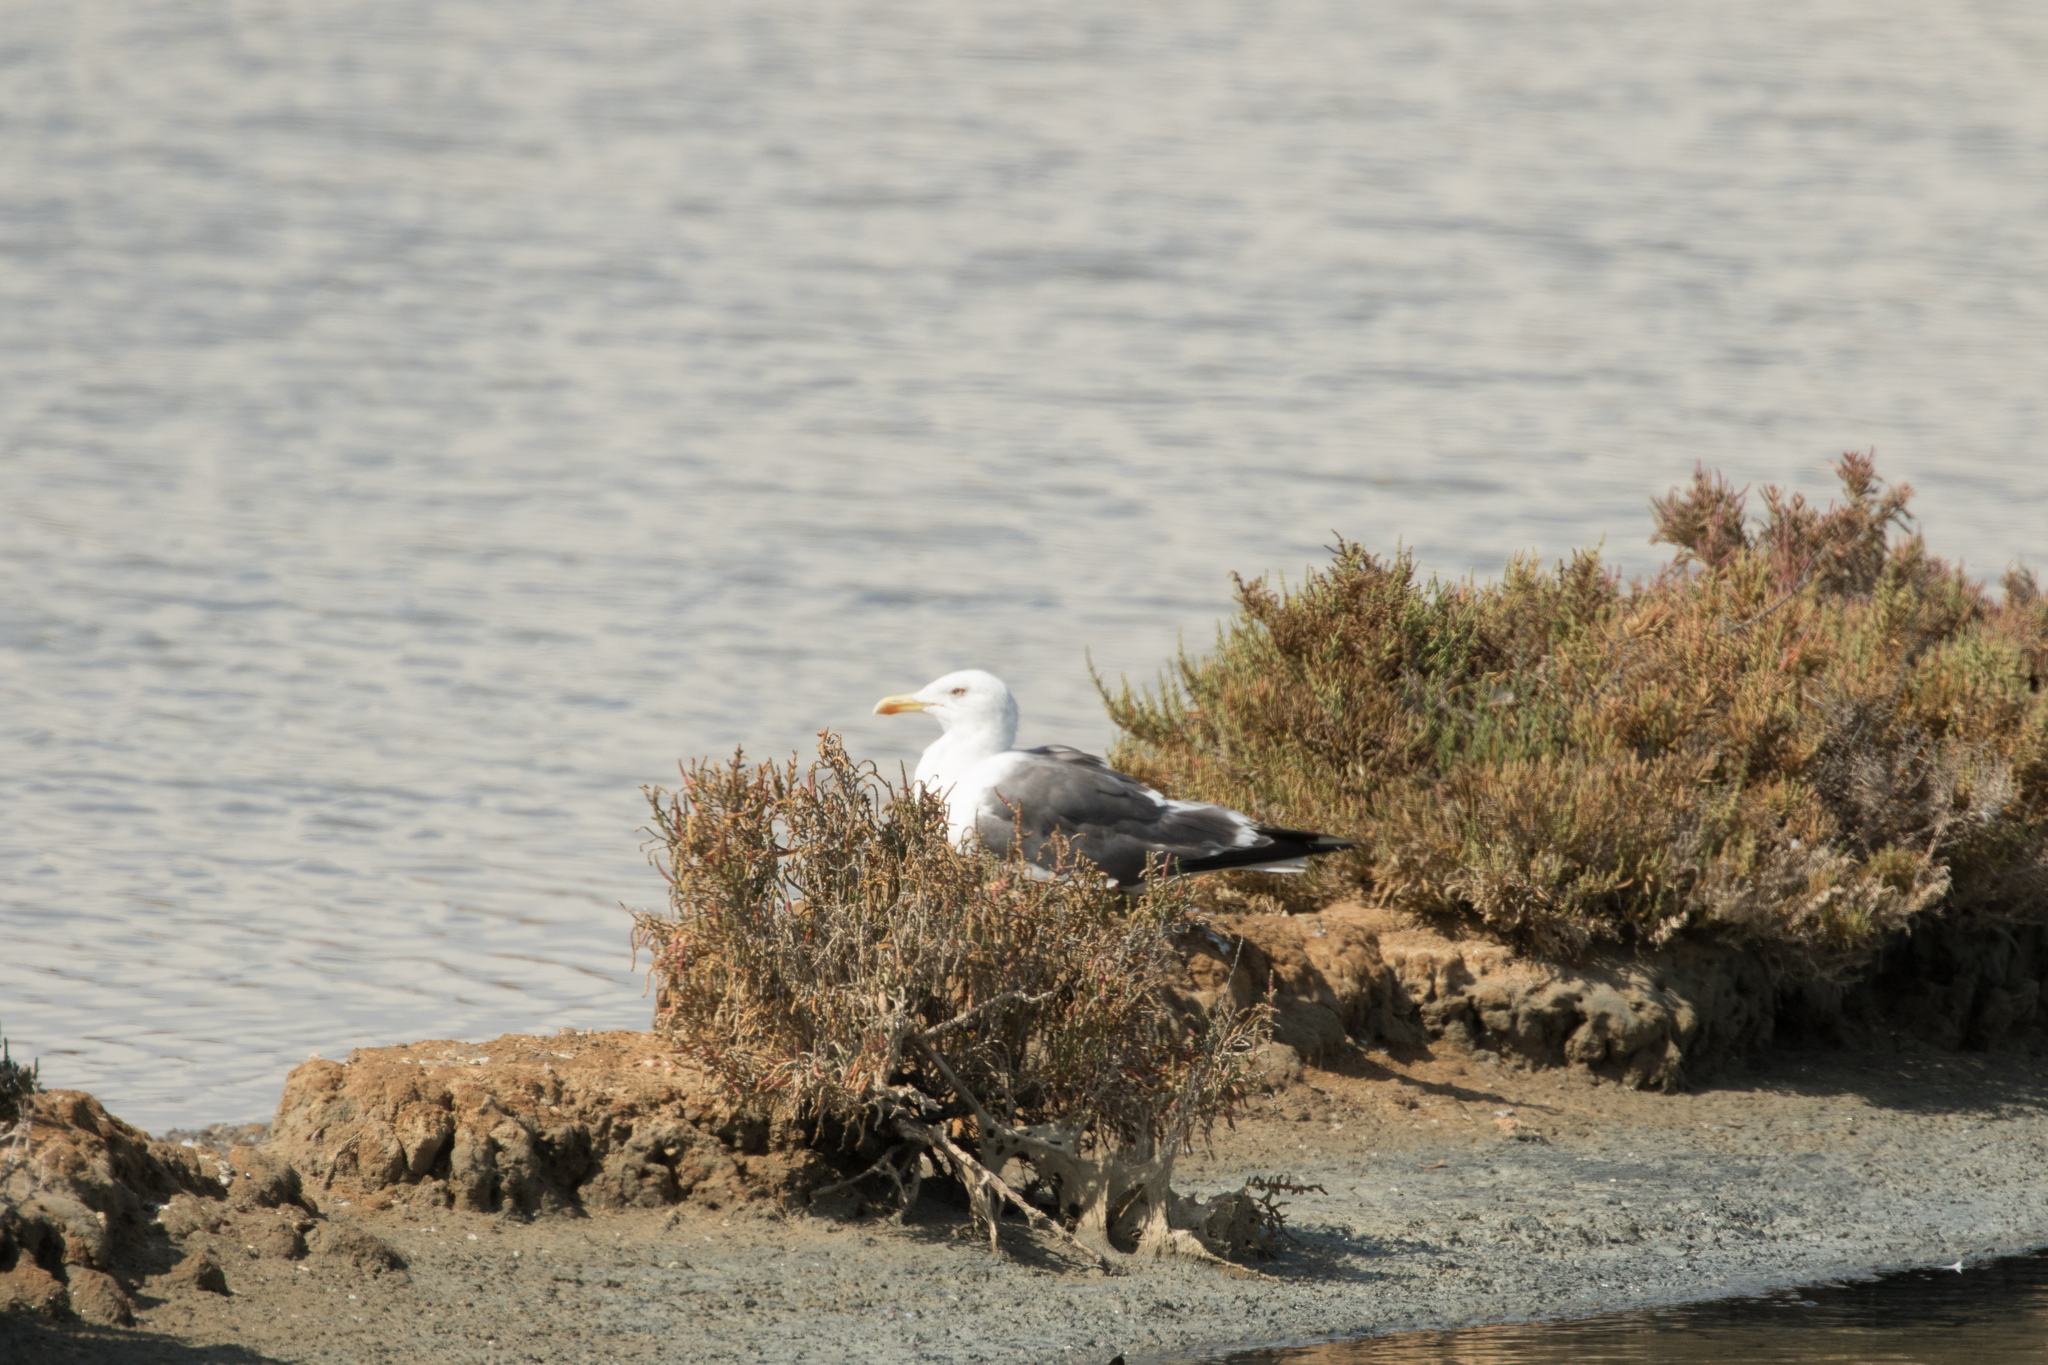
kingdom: Animalia
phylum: Chordata
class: Aves
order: Charadriiformes
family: Laridae
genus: Larus
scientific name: Larus fuscus
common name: Lesser black-backed gull
